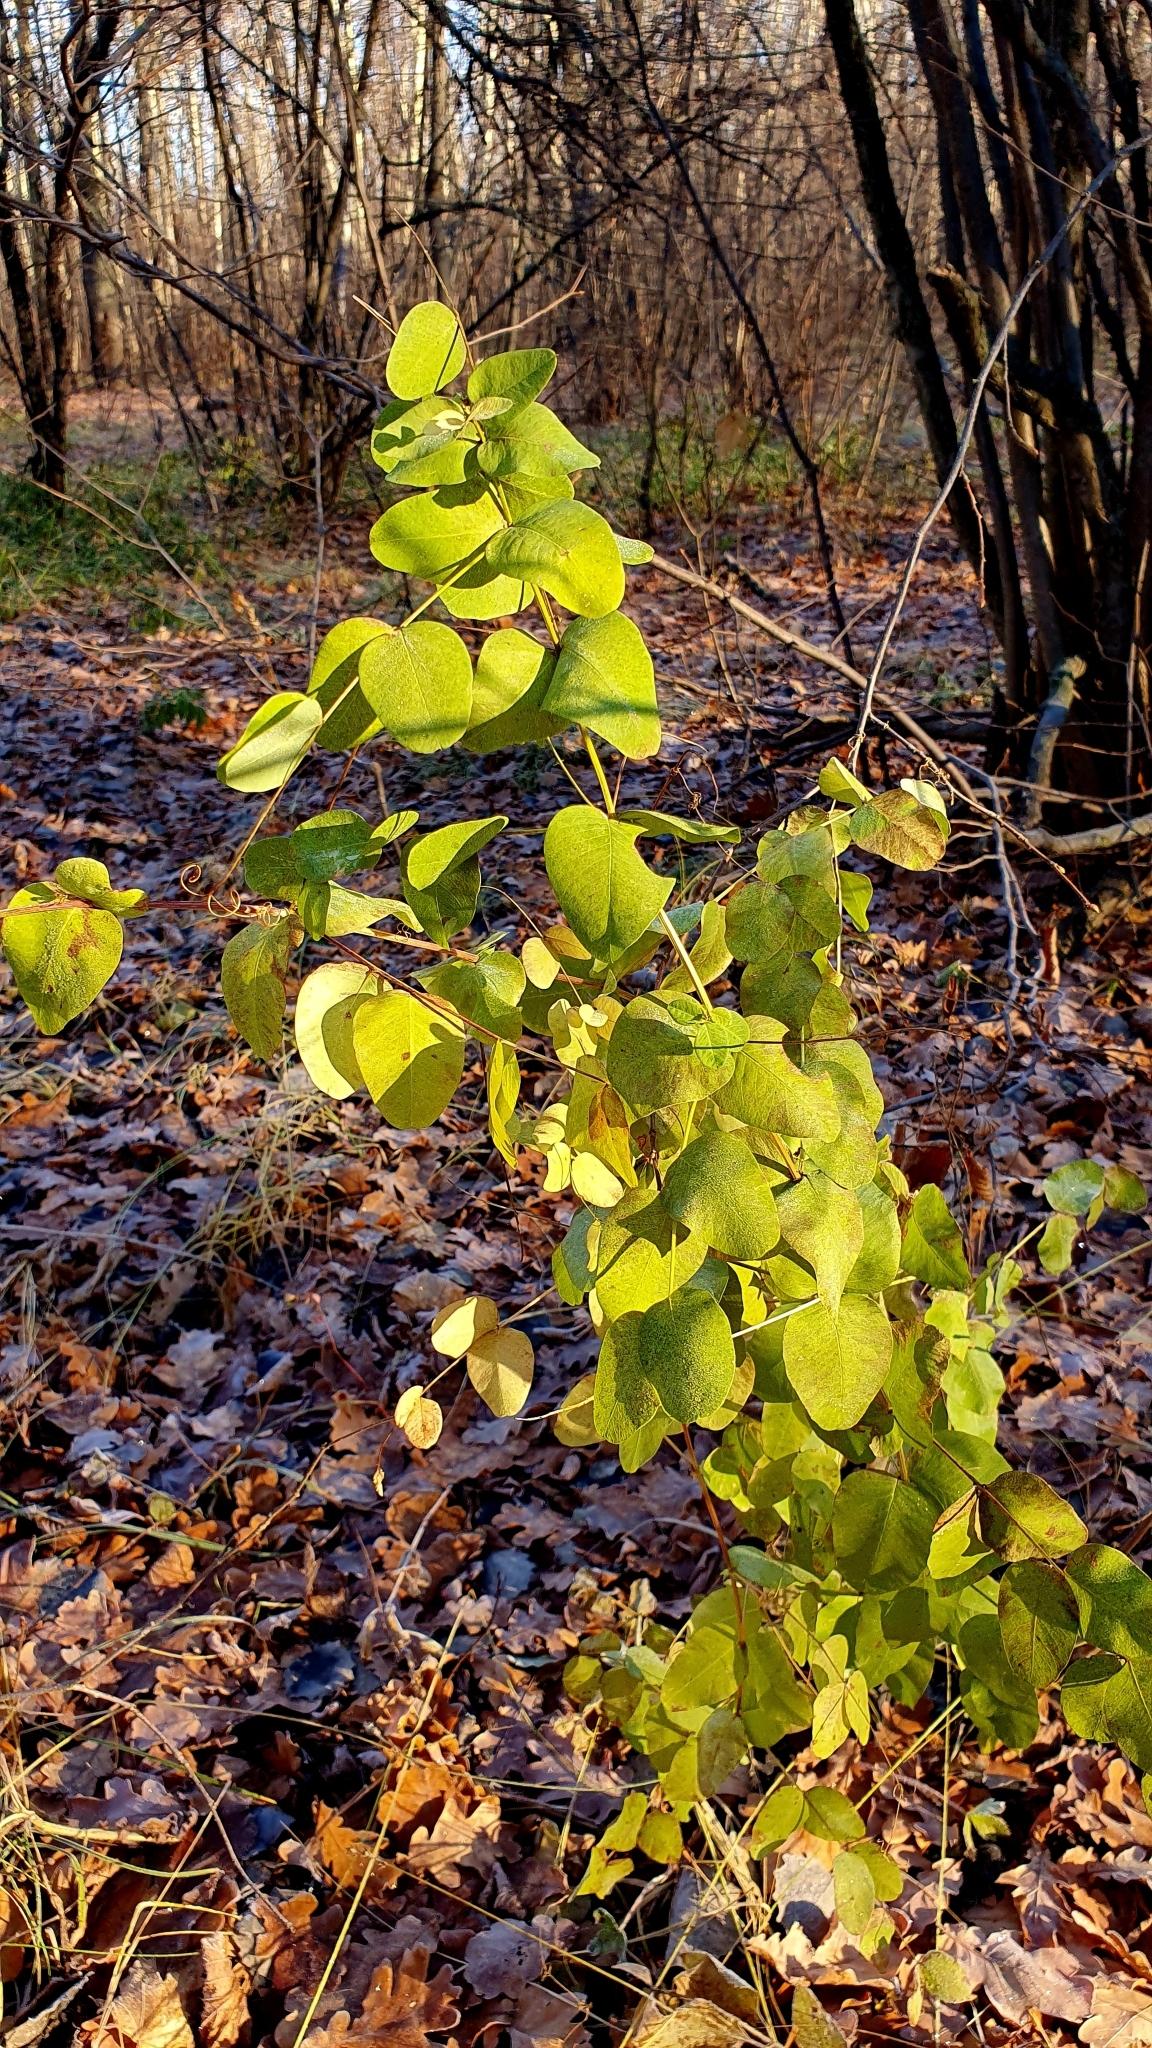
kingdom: Plantae
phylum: Tracheophyta
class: Magnoliopsida
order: Fabales
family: Fabaceae
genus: Vicia
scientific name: Vicia pisiformis
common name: Pale-flower vetch
